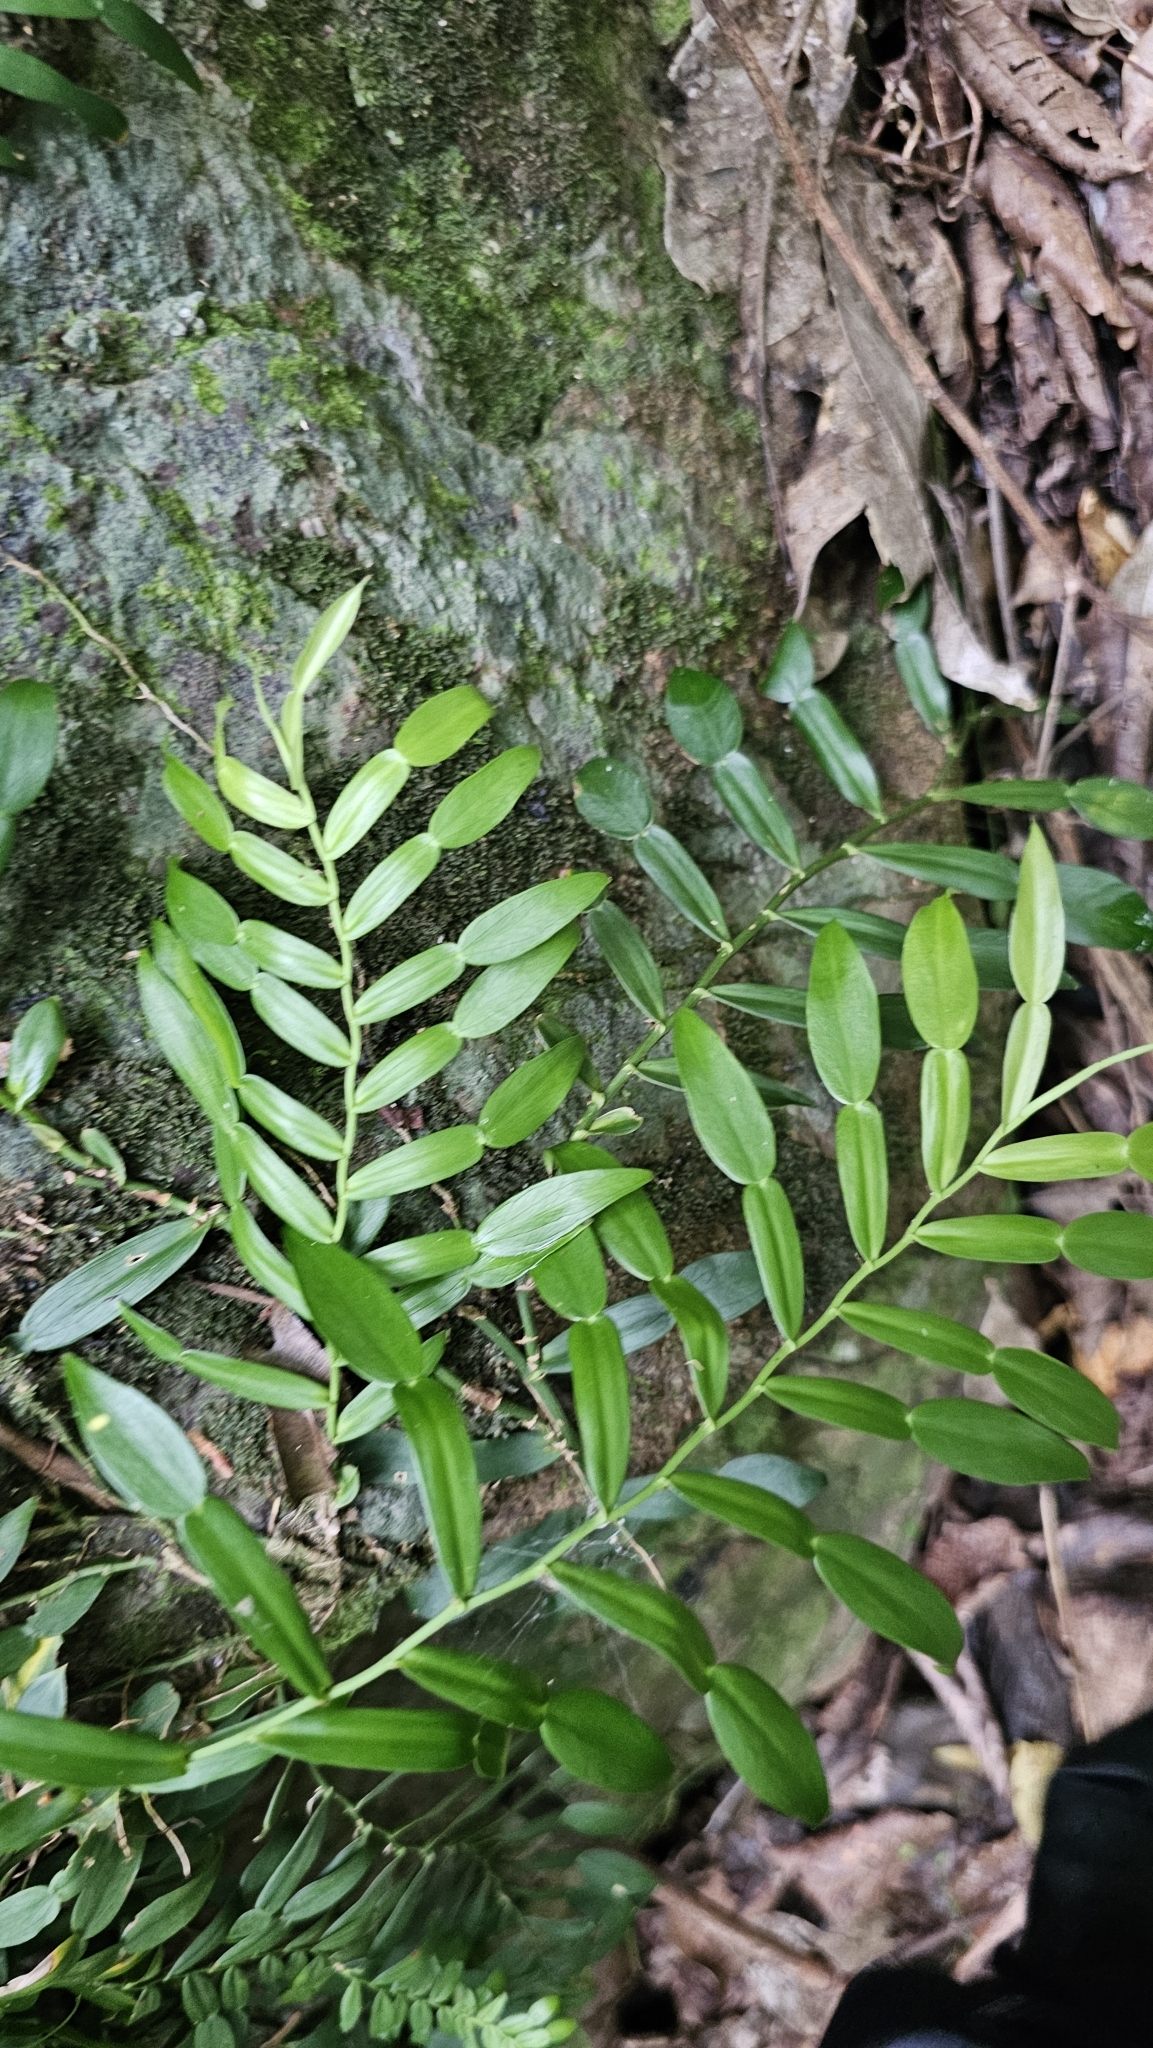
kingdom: Plantae
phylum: Tracheophyta
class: Liliopsida
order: Alismatales
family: Araceae
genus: Pothos
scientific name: Pothos longipes
